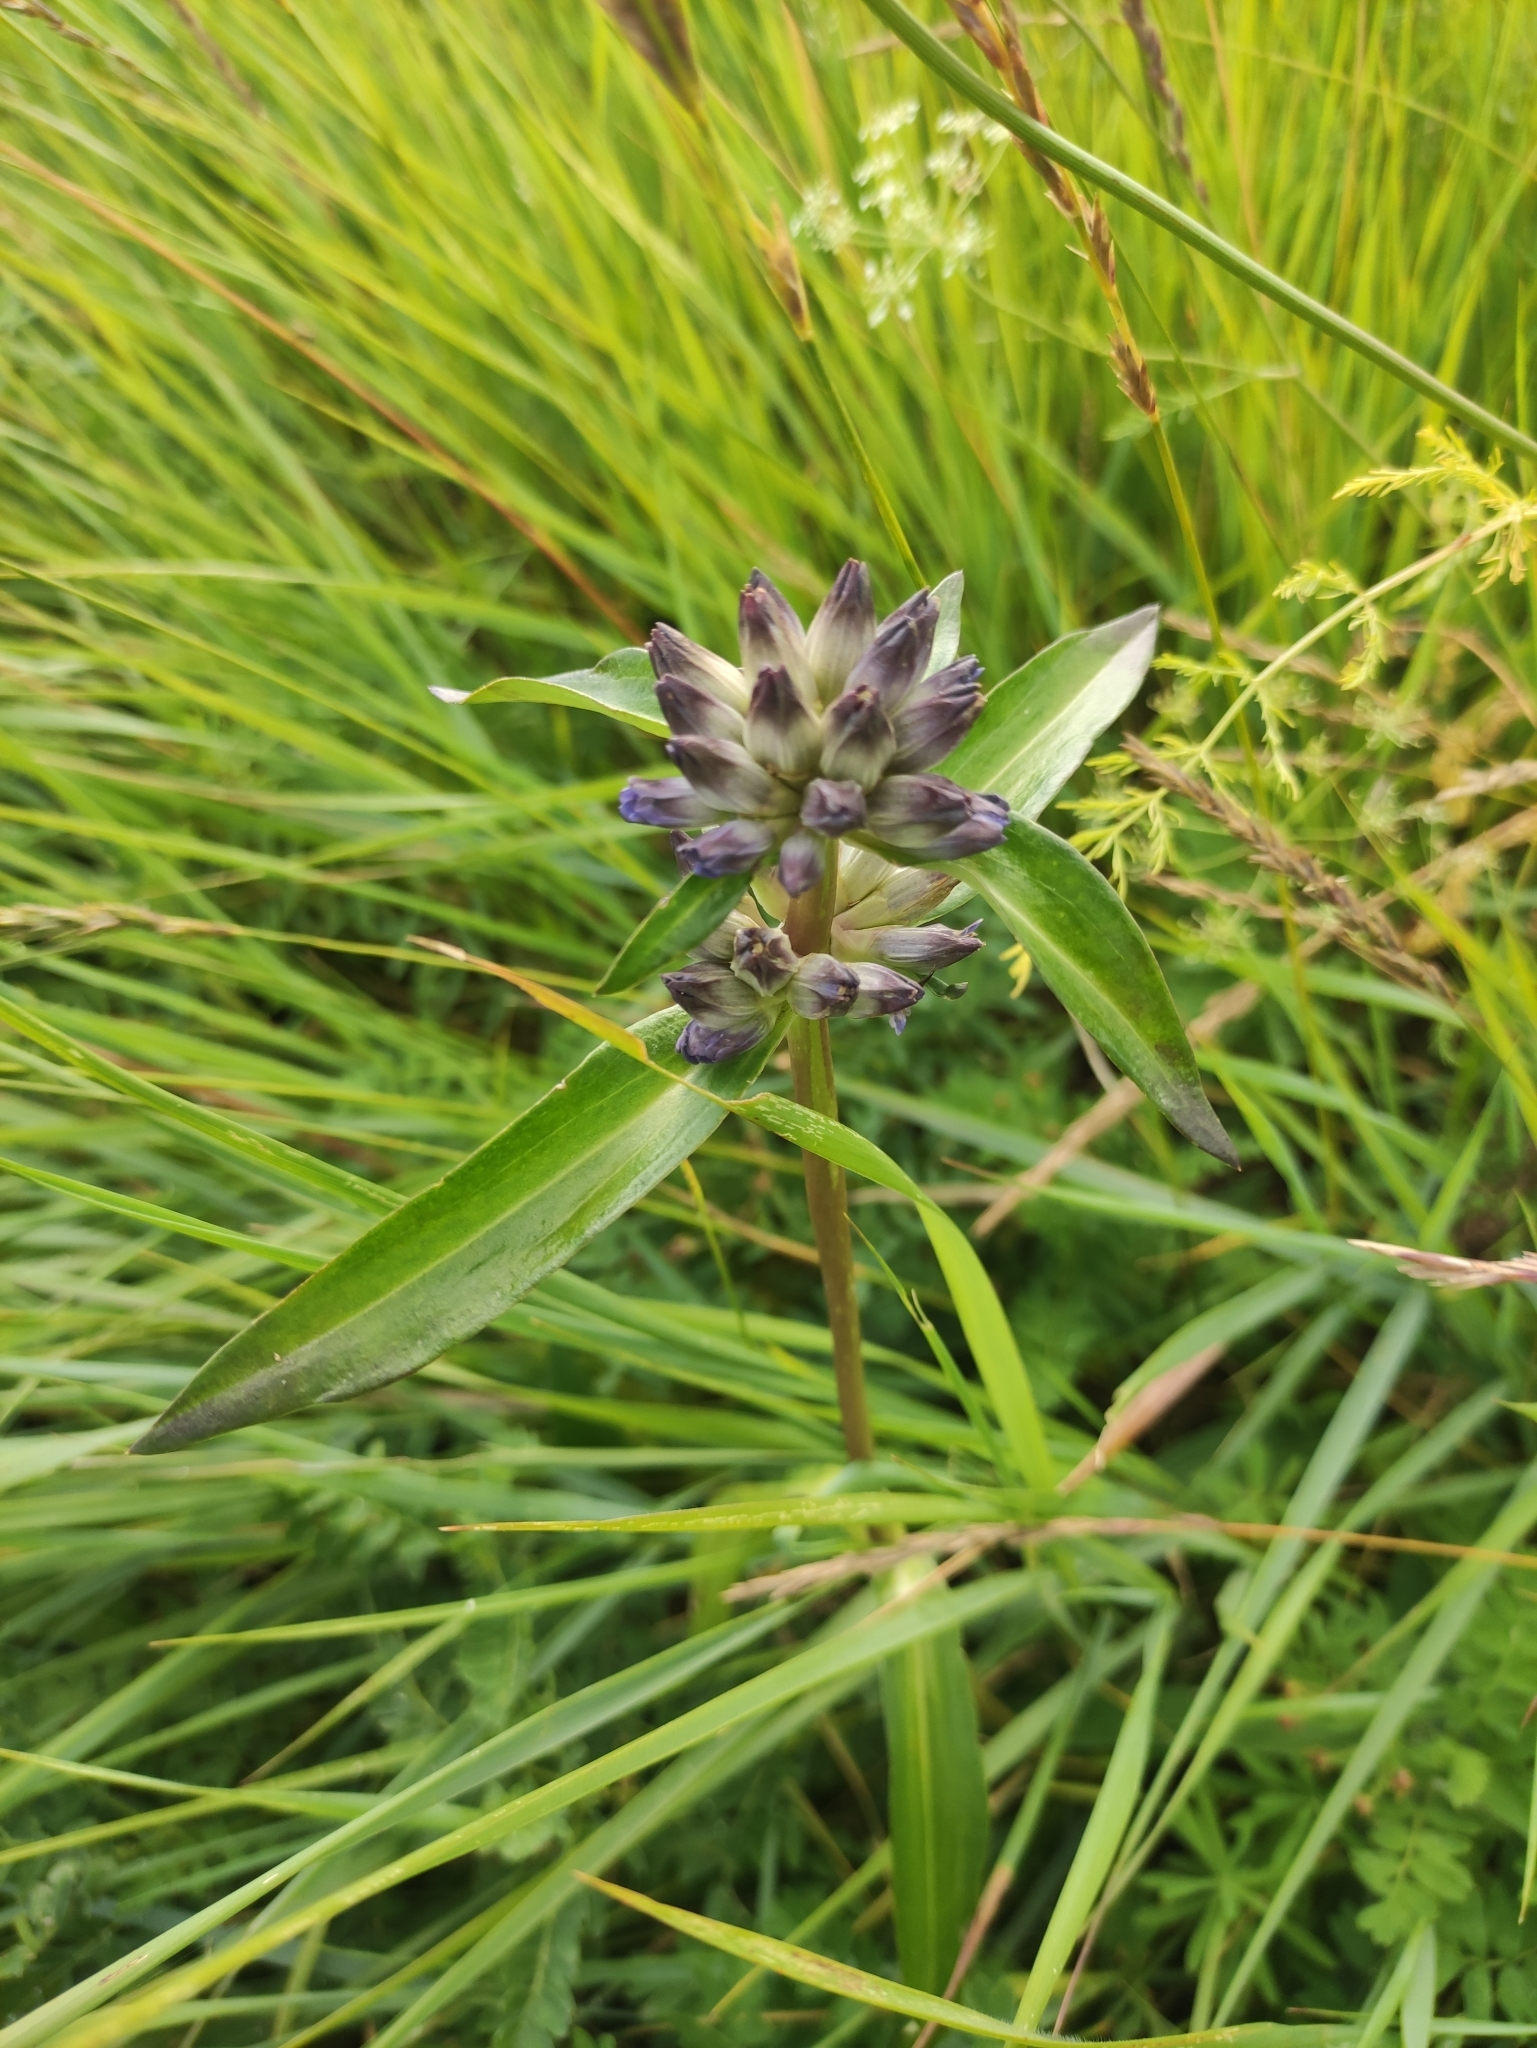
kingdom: Plantae
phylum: Tracheophyta
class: Magnoliopsida
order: Gentianales
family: Gentianaceae
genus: Gentiana
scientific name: Gentiana macrophylla
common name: Large-leaf gentian
